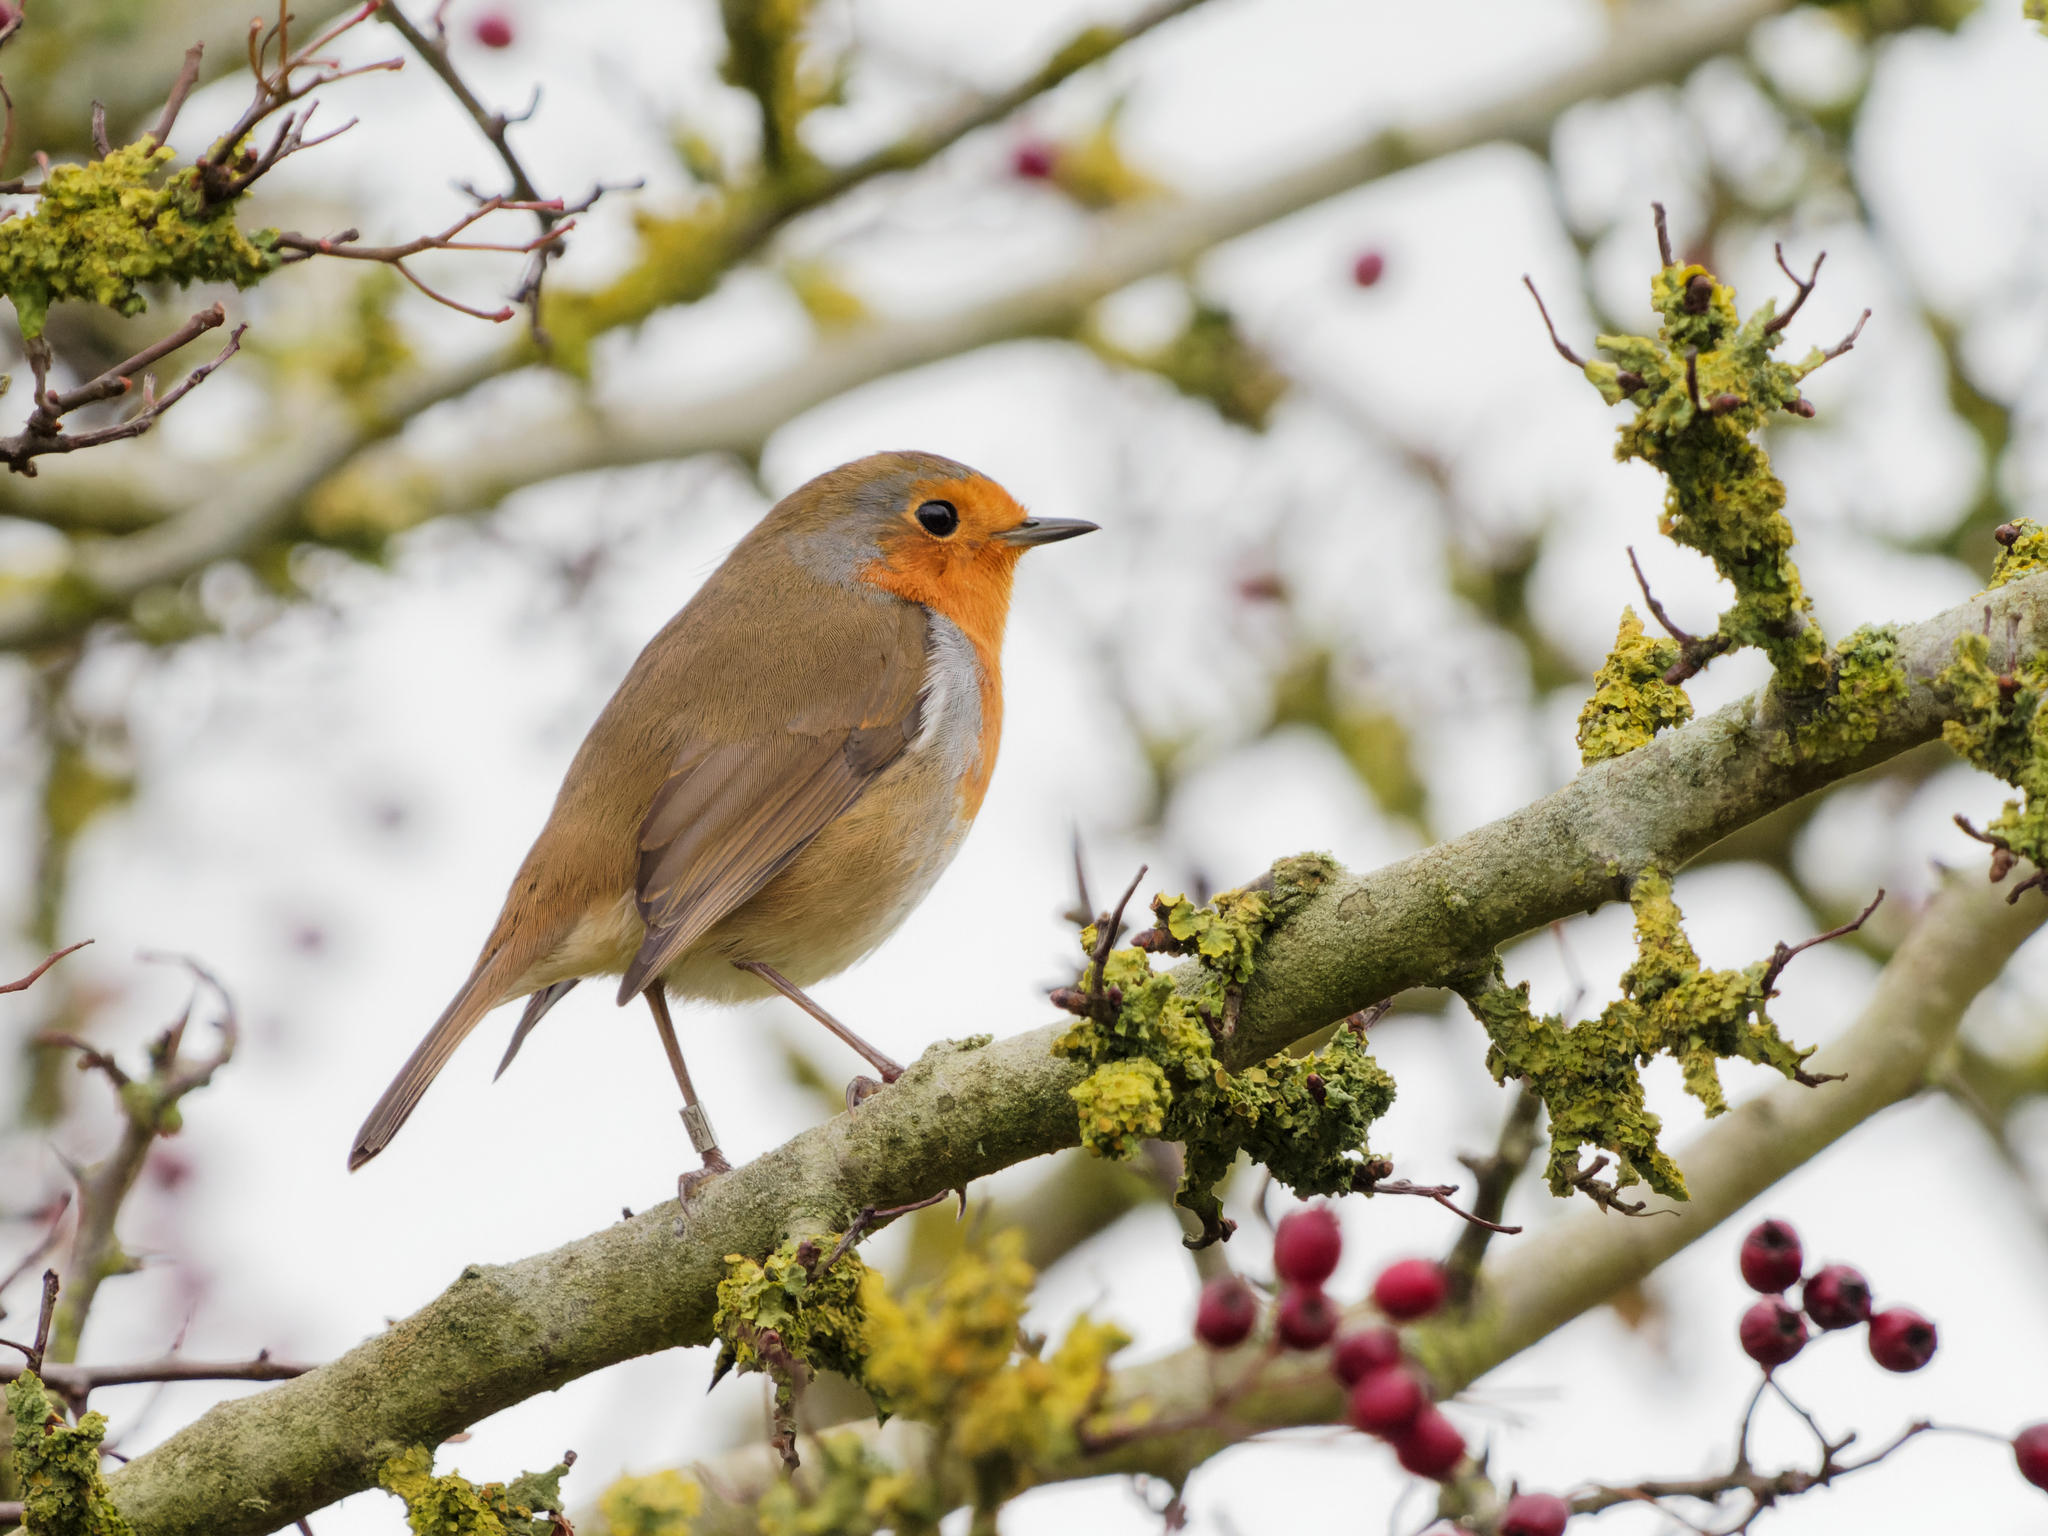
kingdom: Animalia
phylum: Chordata
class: Aves
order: Passeriformes
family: Muscicapidae
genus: Erithacus
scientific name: Erithacus rubecula
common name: European robin
